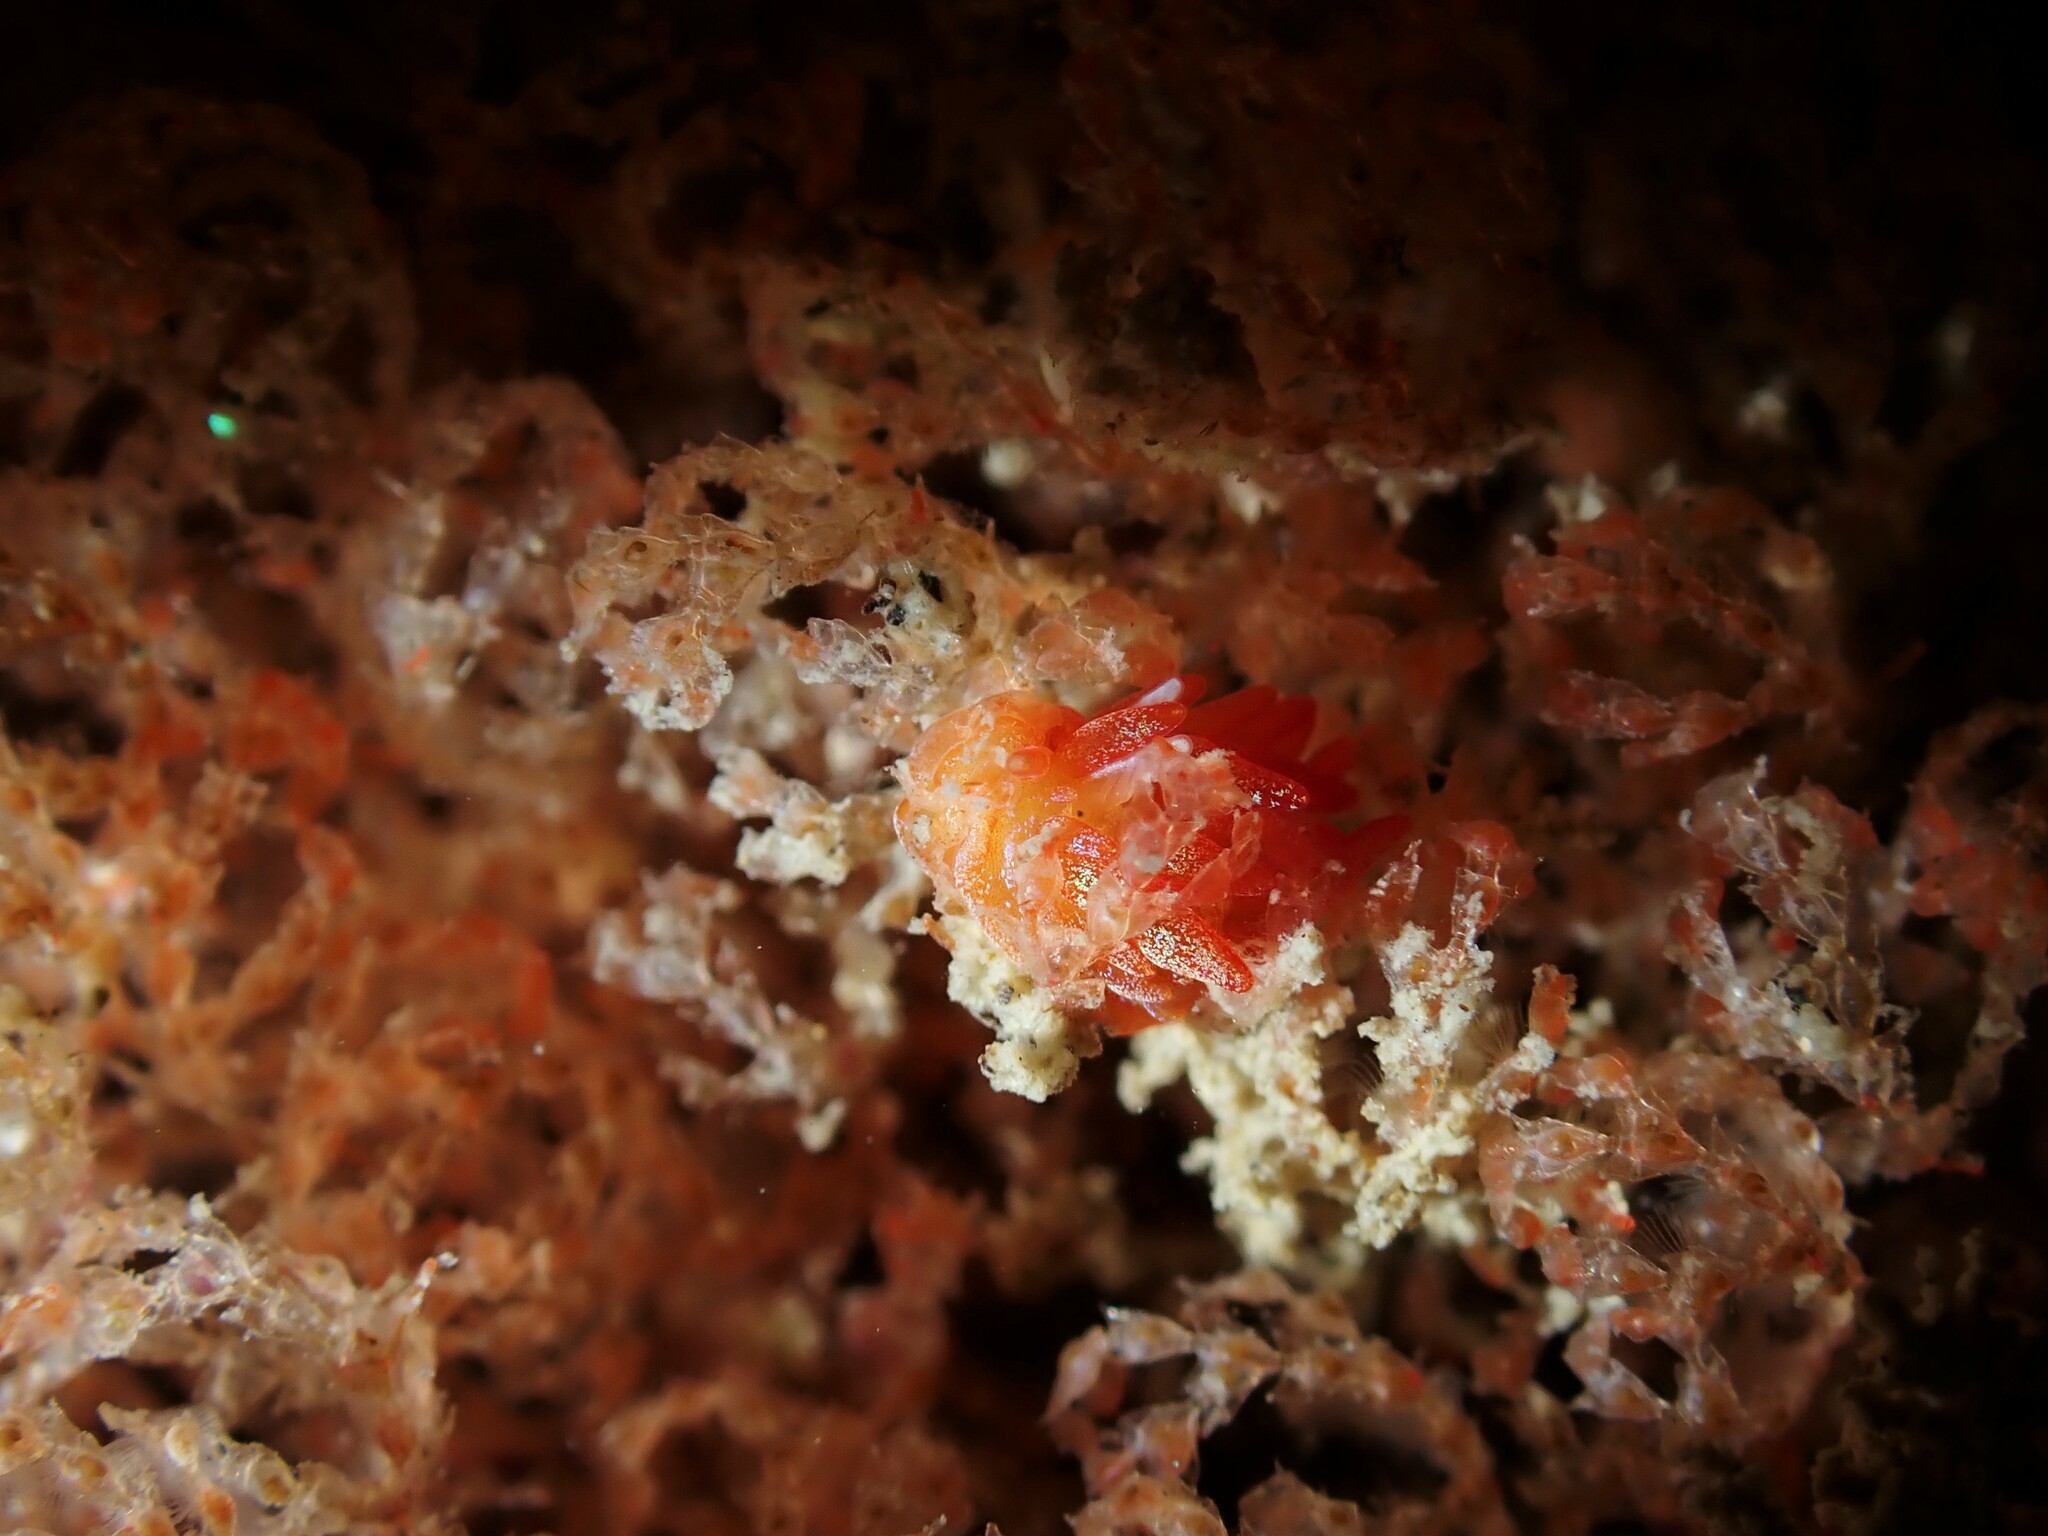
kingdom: Animalia
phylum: Mollusca
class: Gastropoda
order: Nudibranchia
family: Janolidae
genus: Janolus
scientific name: Janolus ignis
